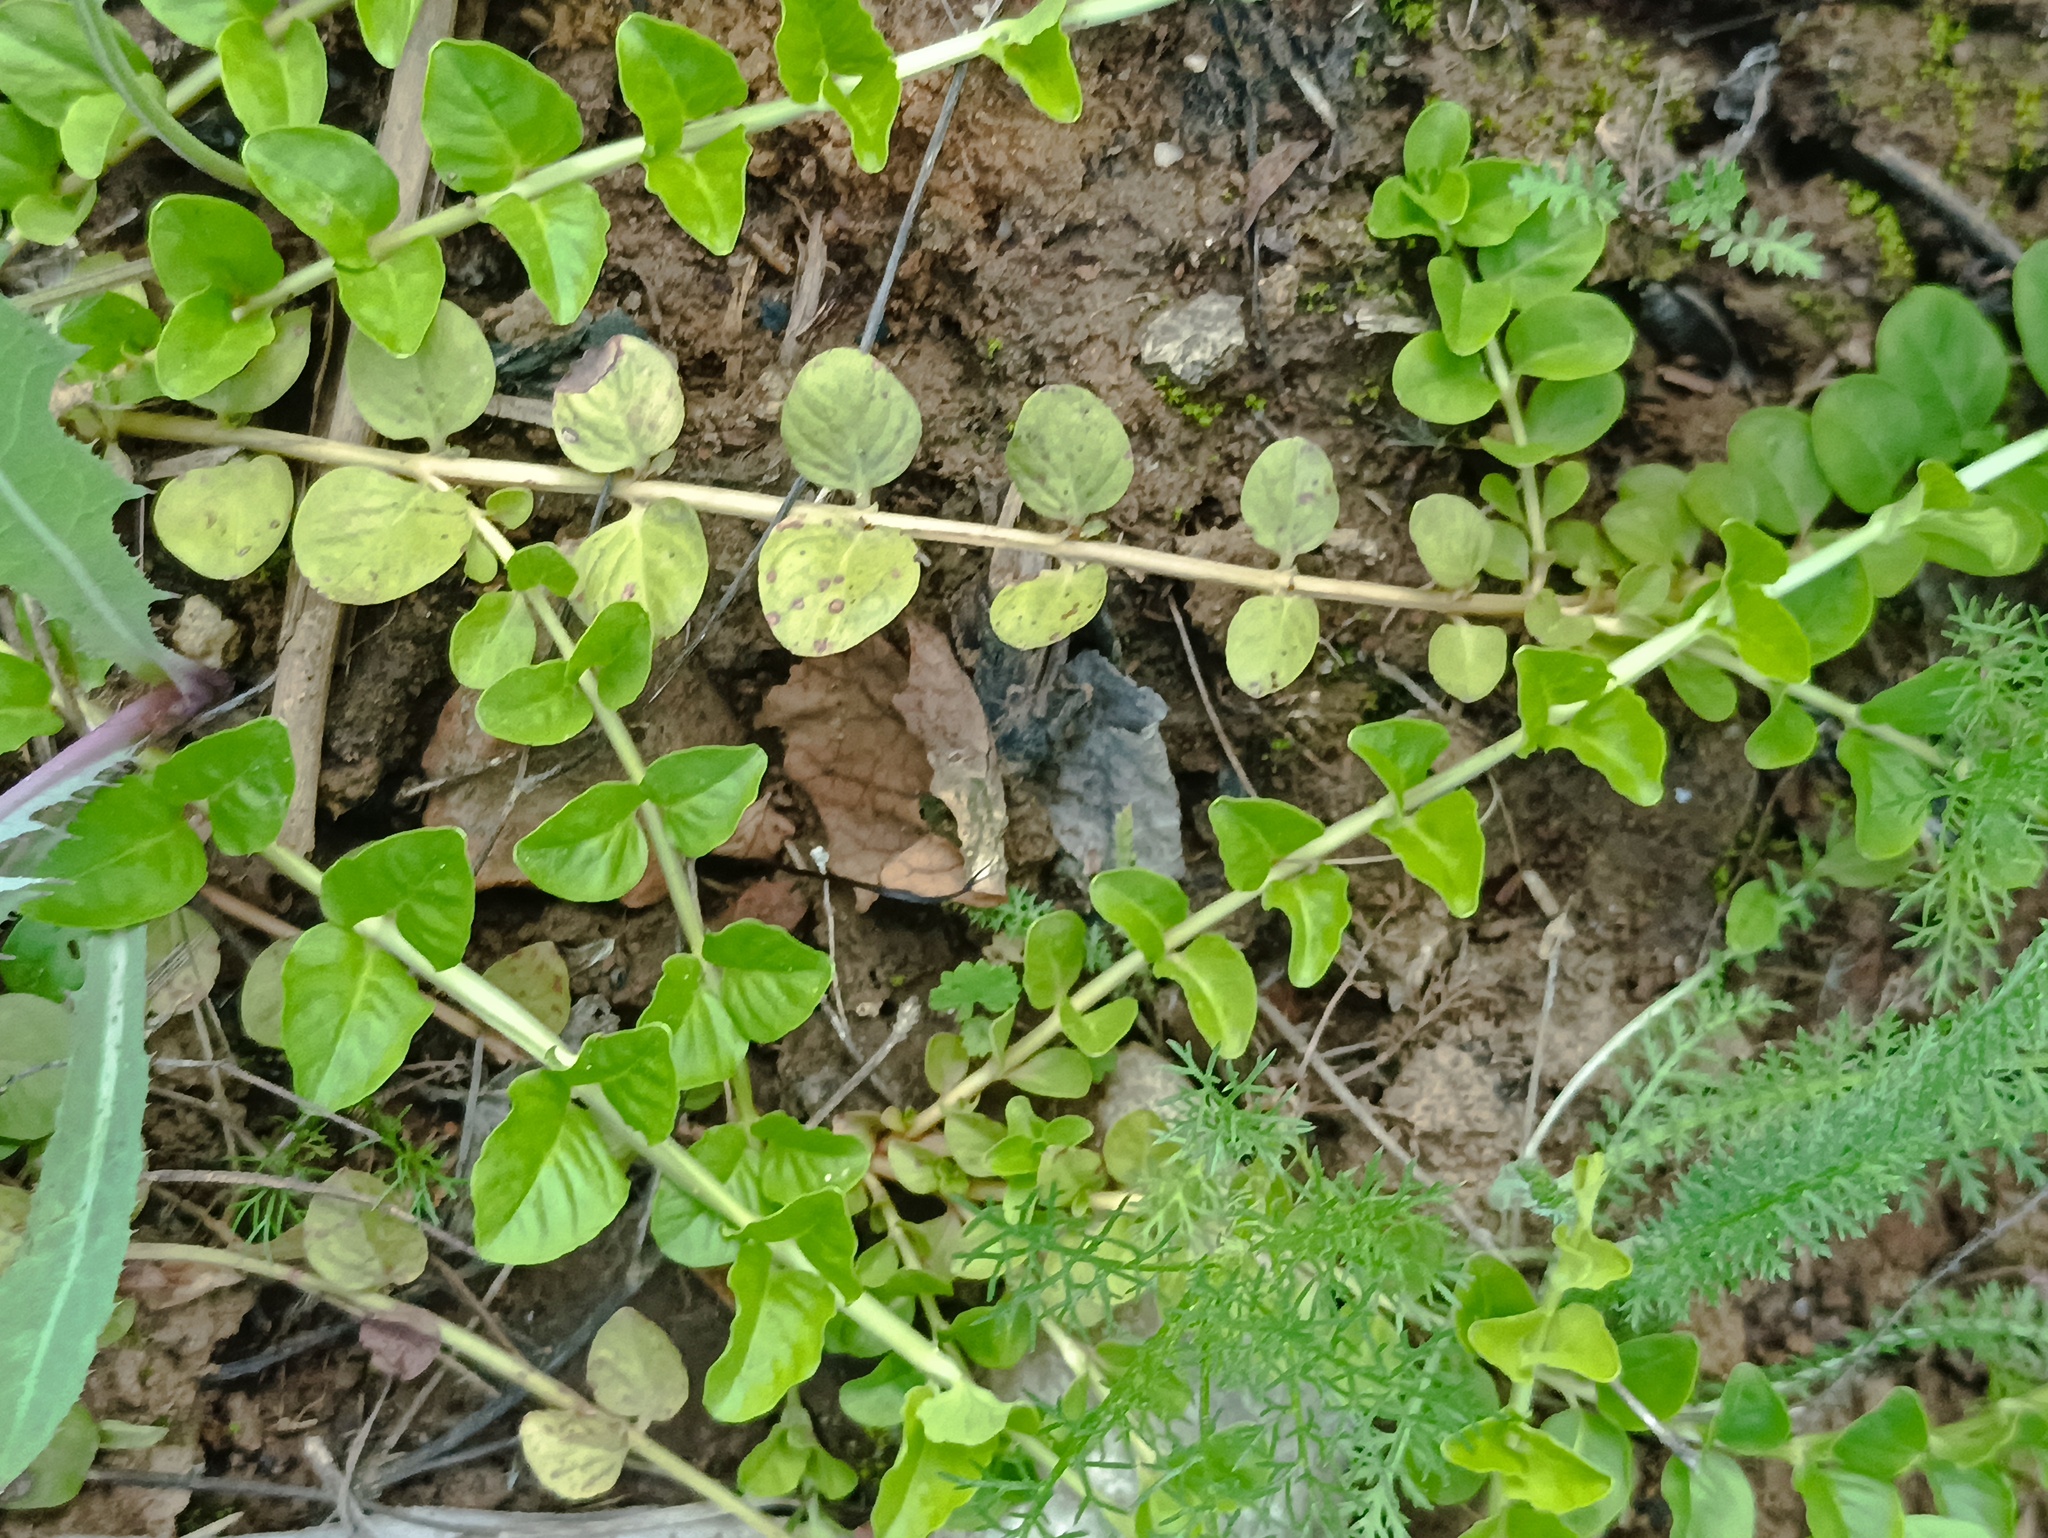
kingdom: Plantae
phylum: Tracheophyta
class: Magnoliopsida
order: Ericales
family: Primulaceae
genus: Lysimachia
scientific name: Lysimachia nummularia
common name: Moneywort
